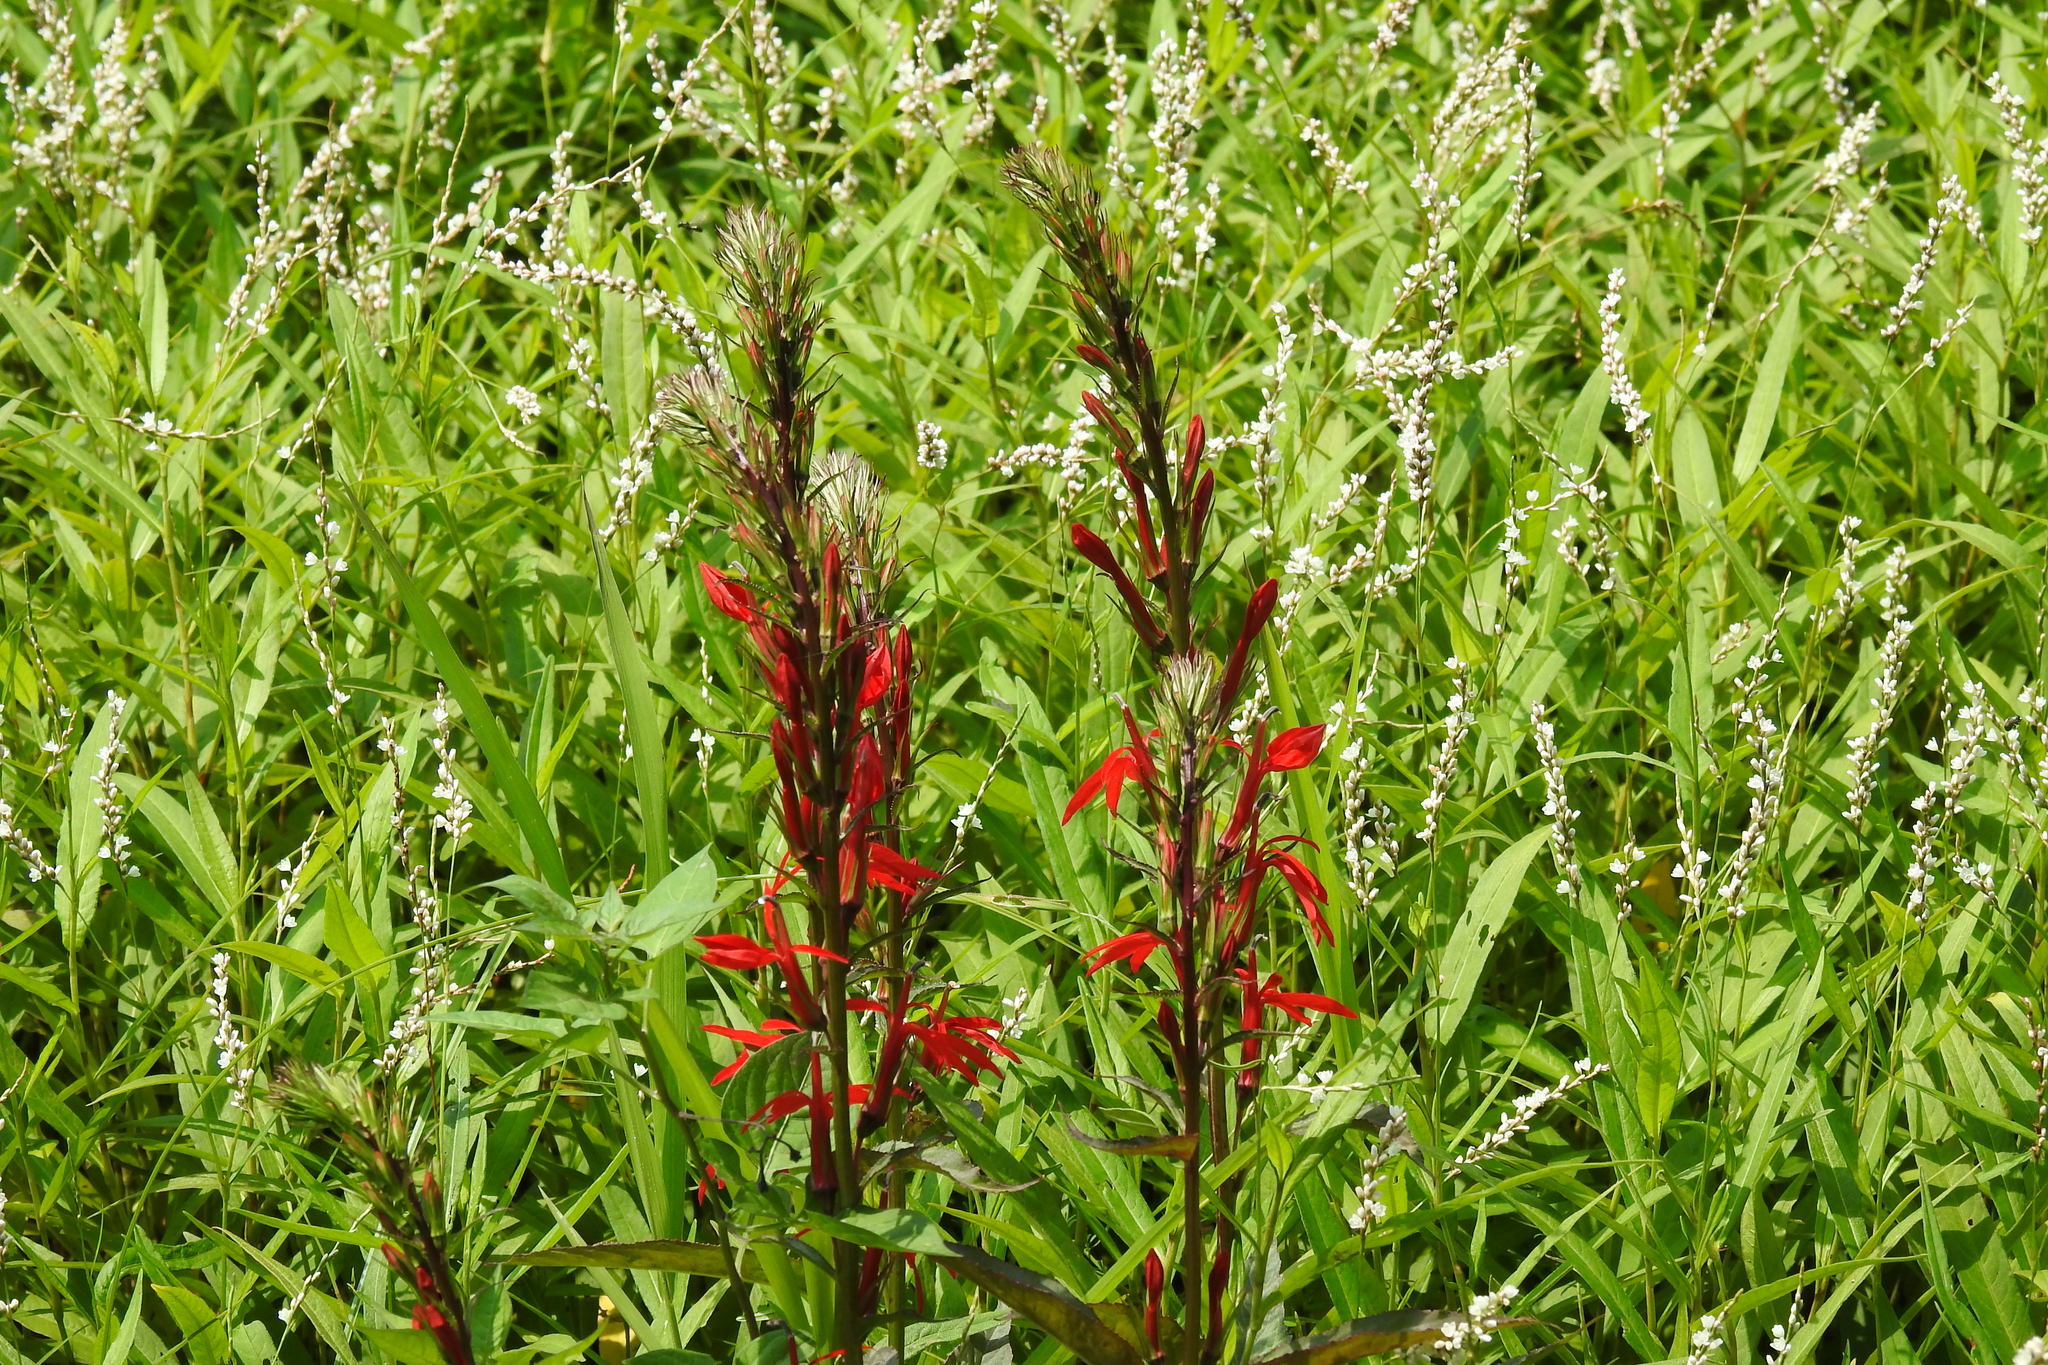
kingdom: Plantae
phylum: Tracheophyta
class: Magnoliopsida
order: Asterales
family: Campanulaceae
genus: Lobelia
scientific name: Lobelia cardinalis
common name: Cardinal flower
